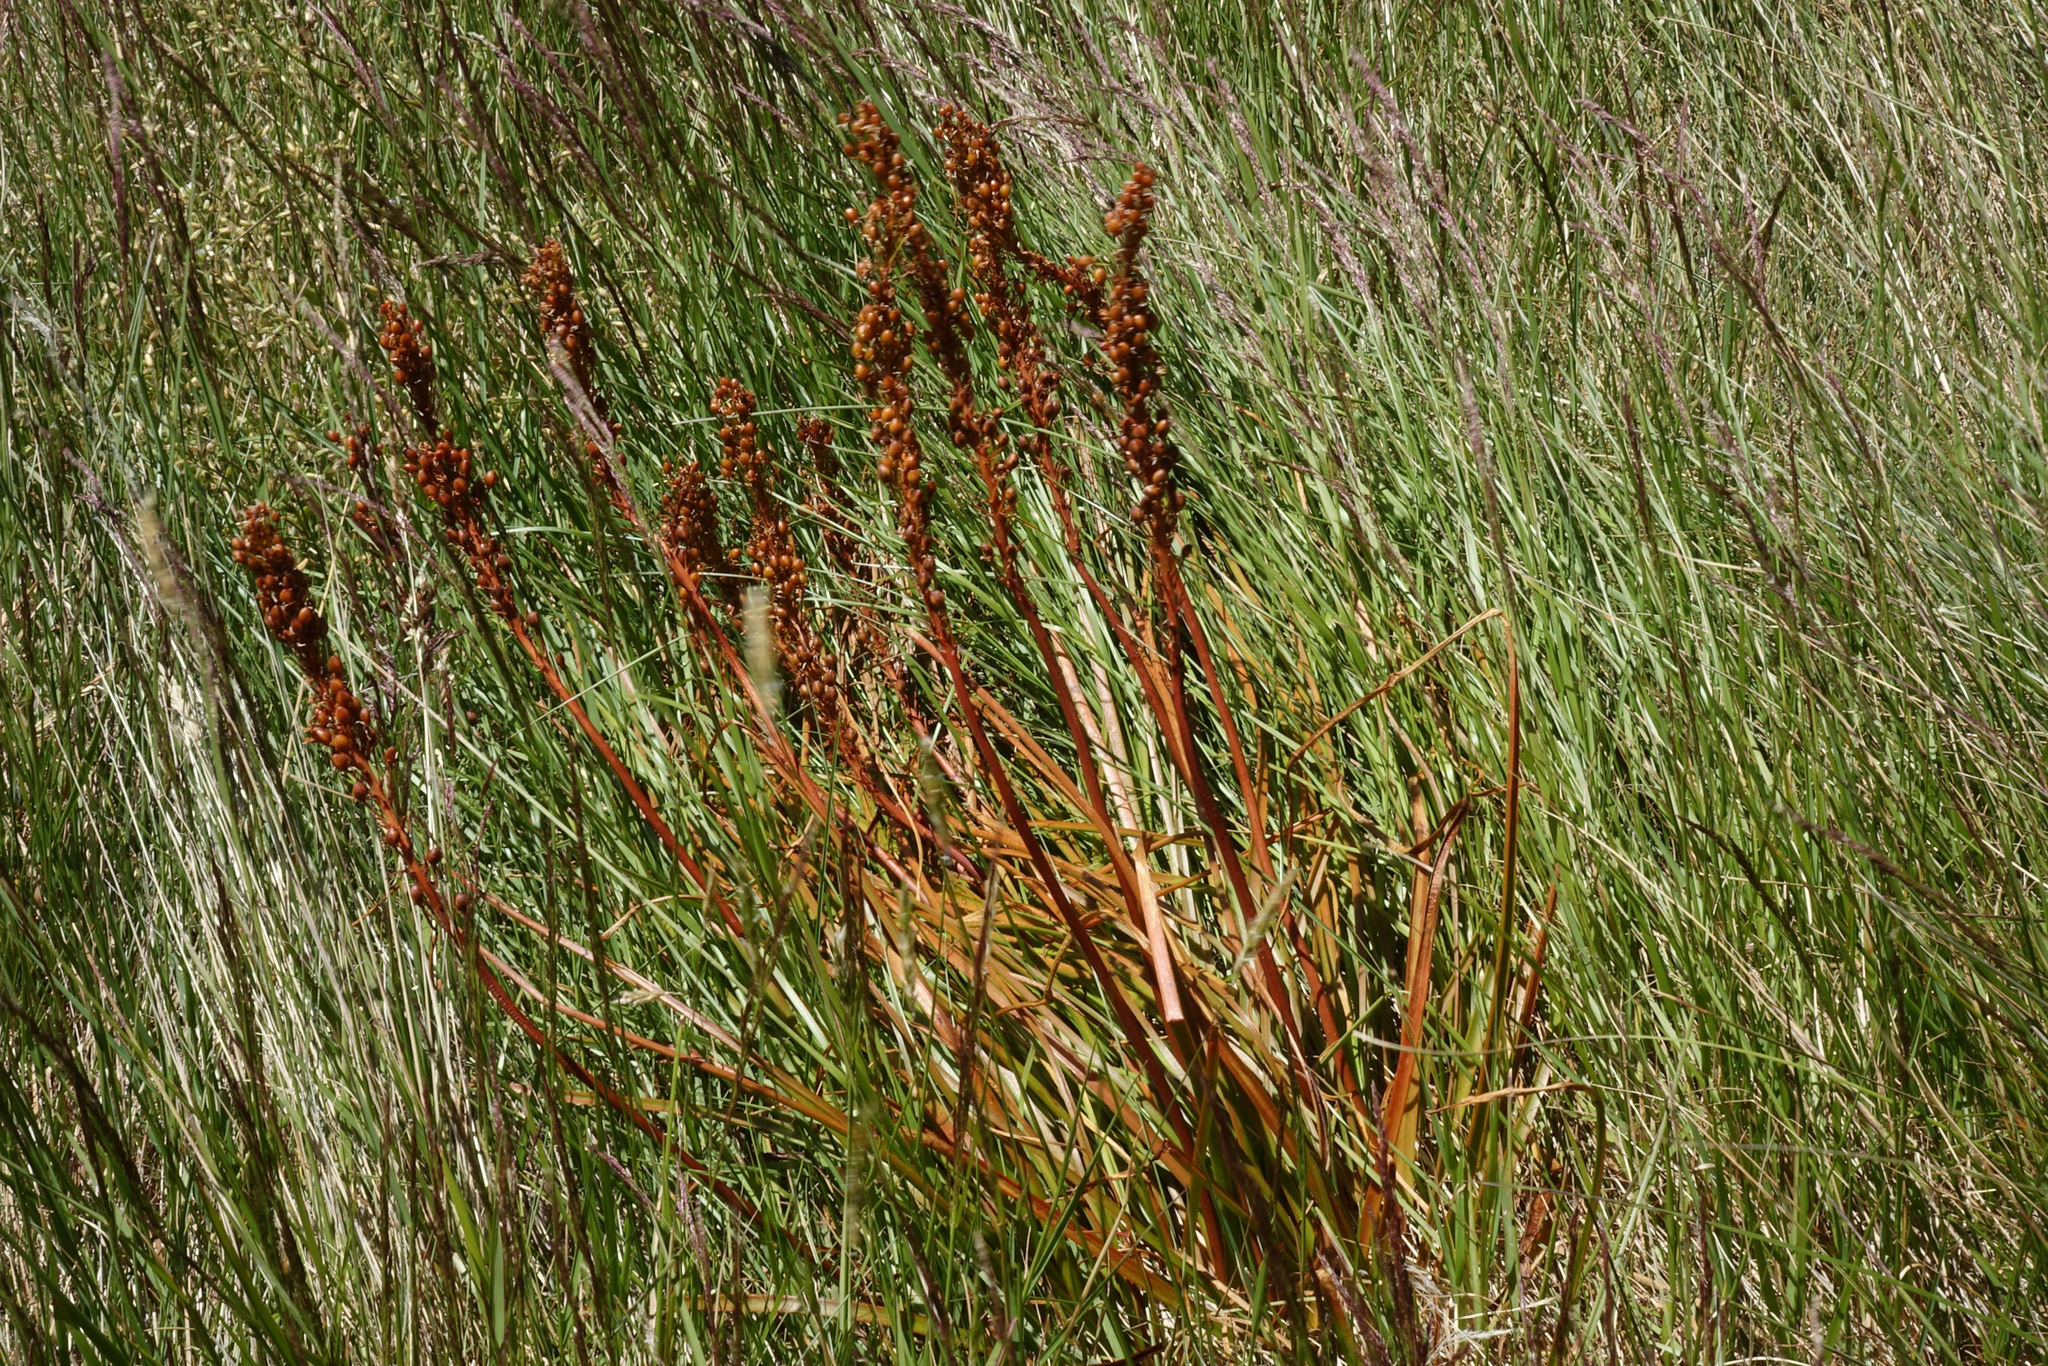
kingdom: Plantae
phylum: Tracheophyta
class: Liliopsida
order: Asparagales
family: Asphodelaceae
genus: Bulbinella
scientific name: Bulbinella angustifolia
